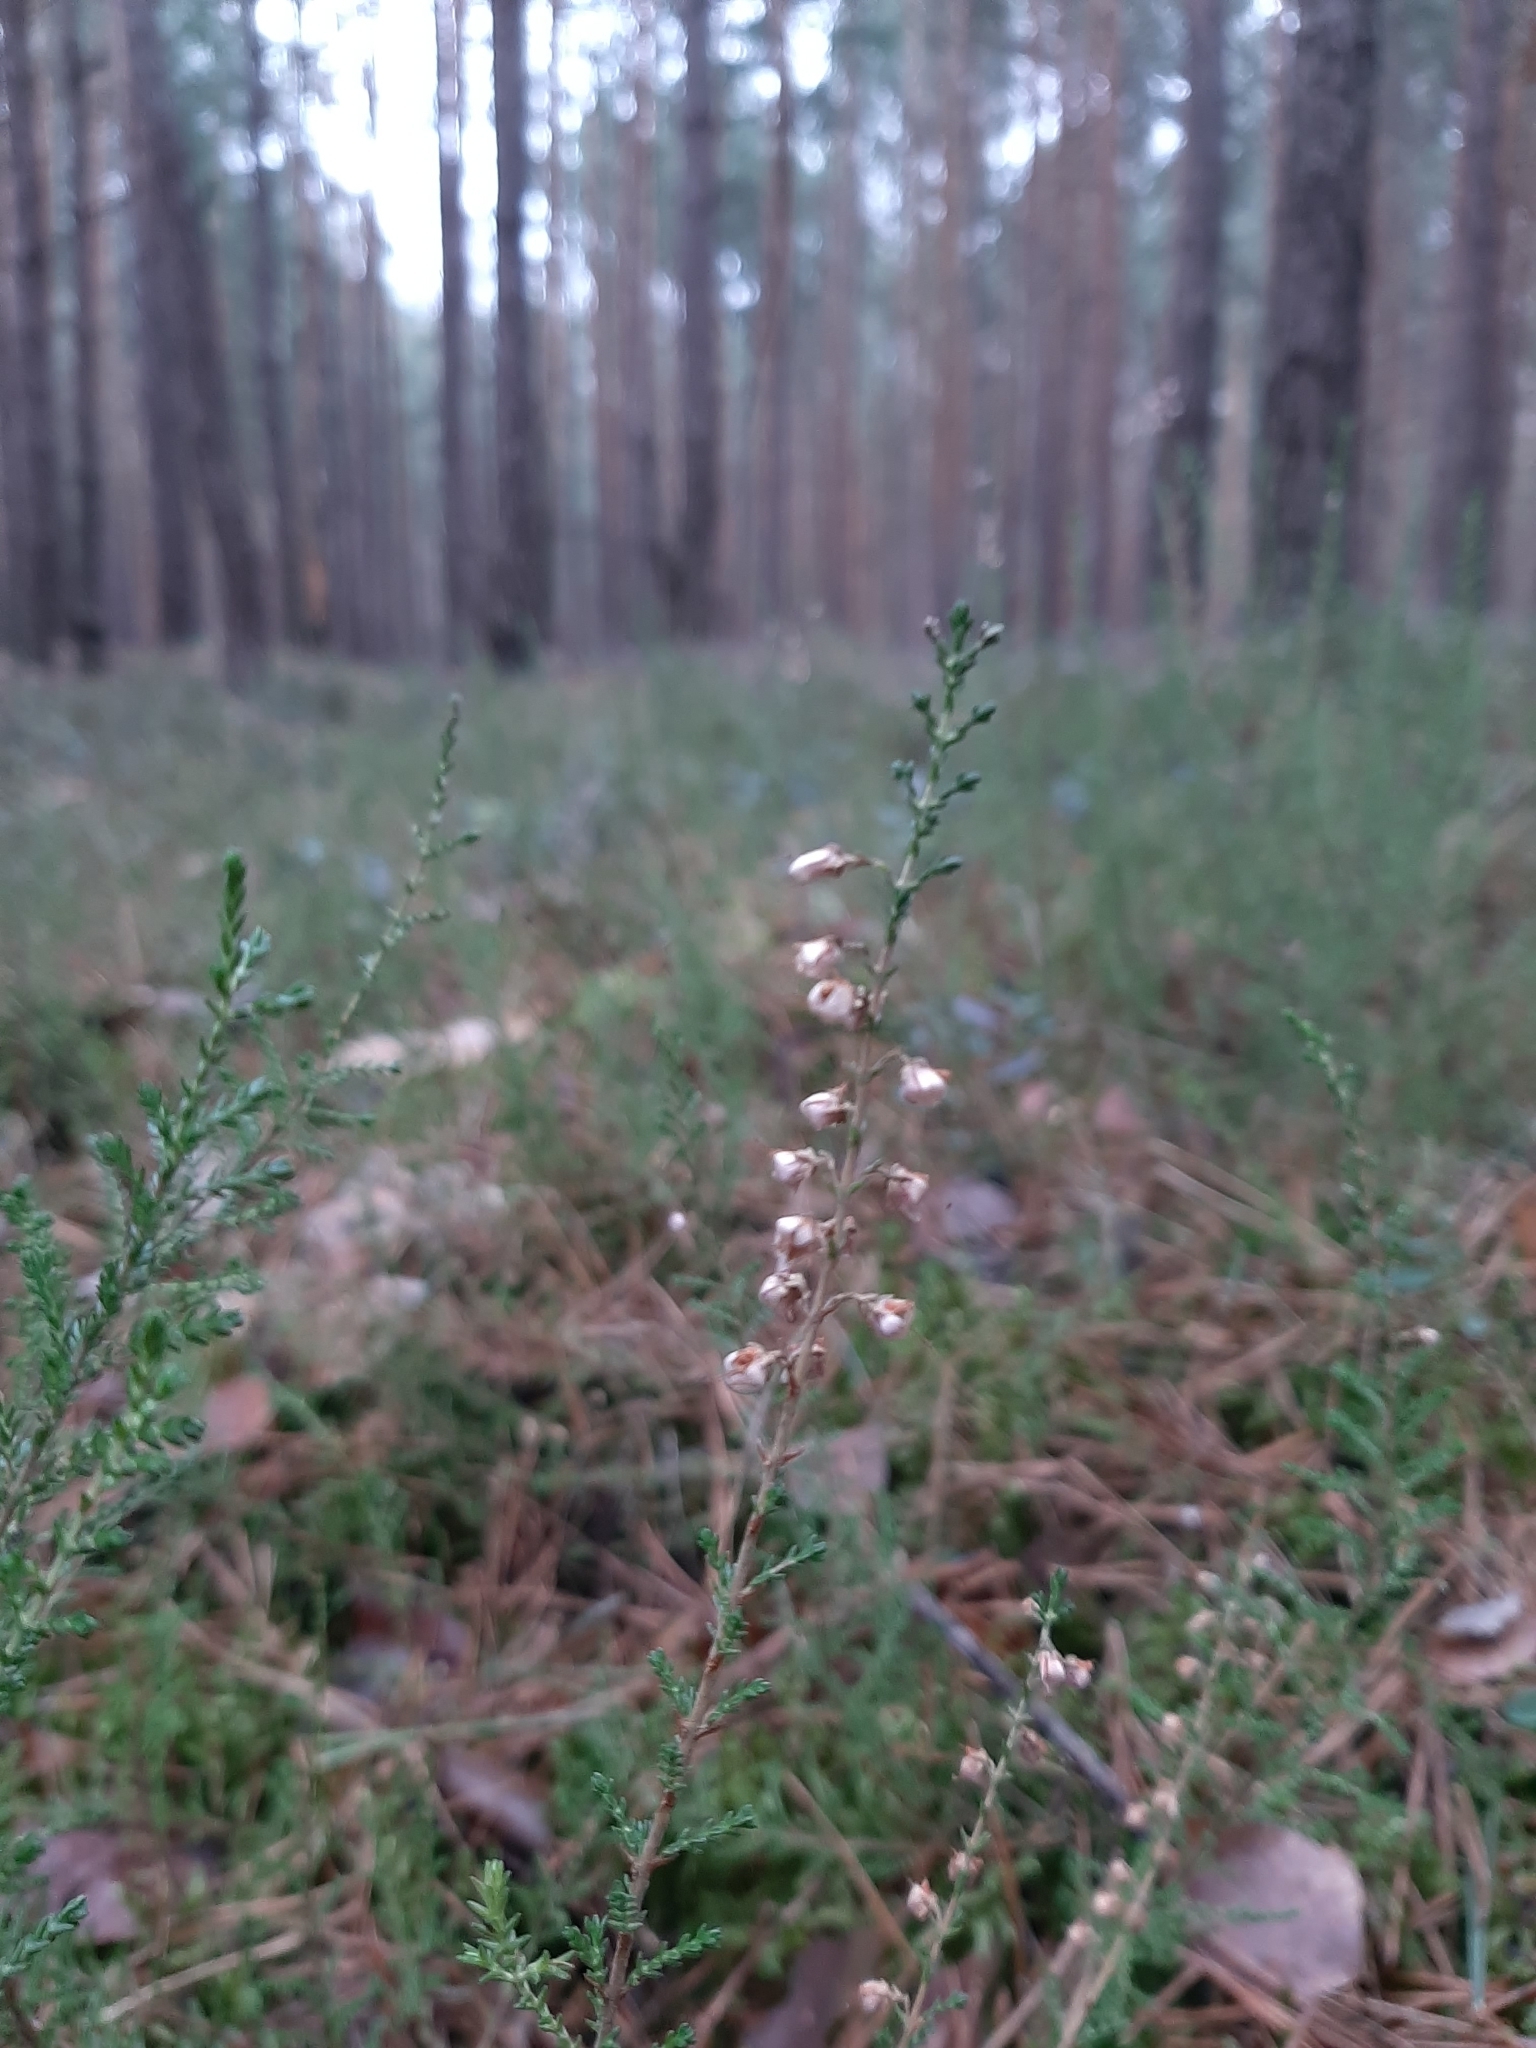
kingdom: Plantae
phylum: Tracheophyta
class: Magnoliopsida
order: Ericales
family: Ericaceae
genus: Calluna
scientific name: Calluna vulgaris
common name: Heather
